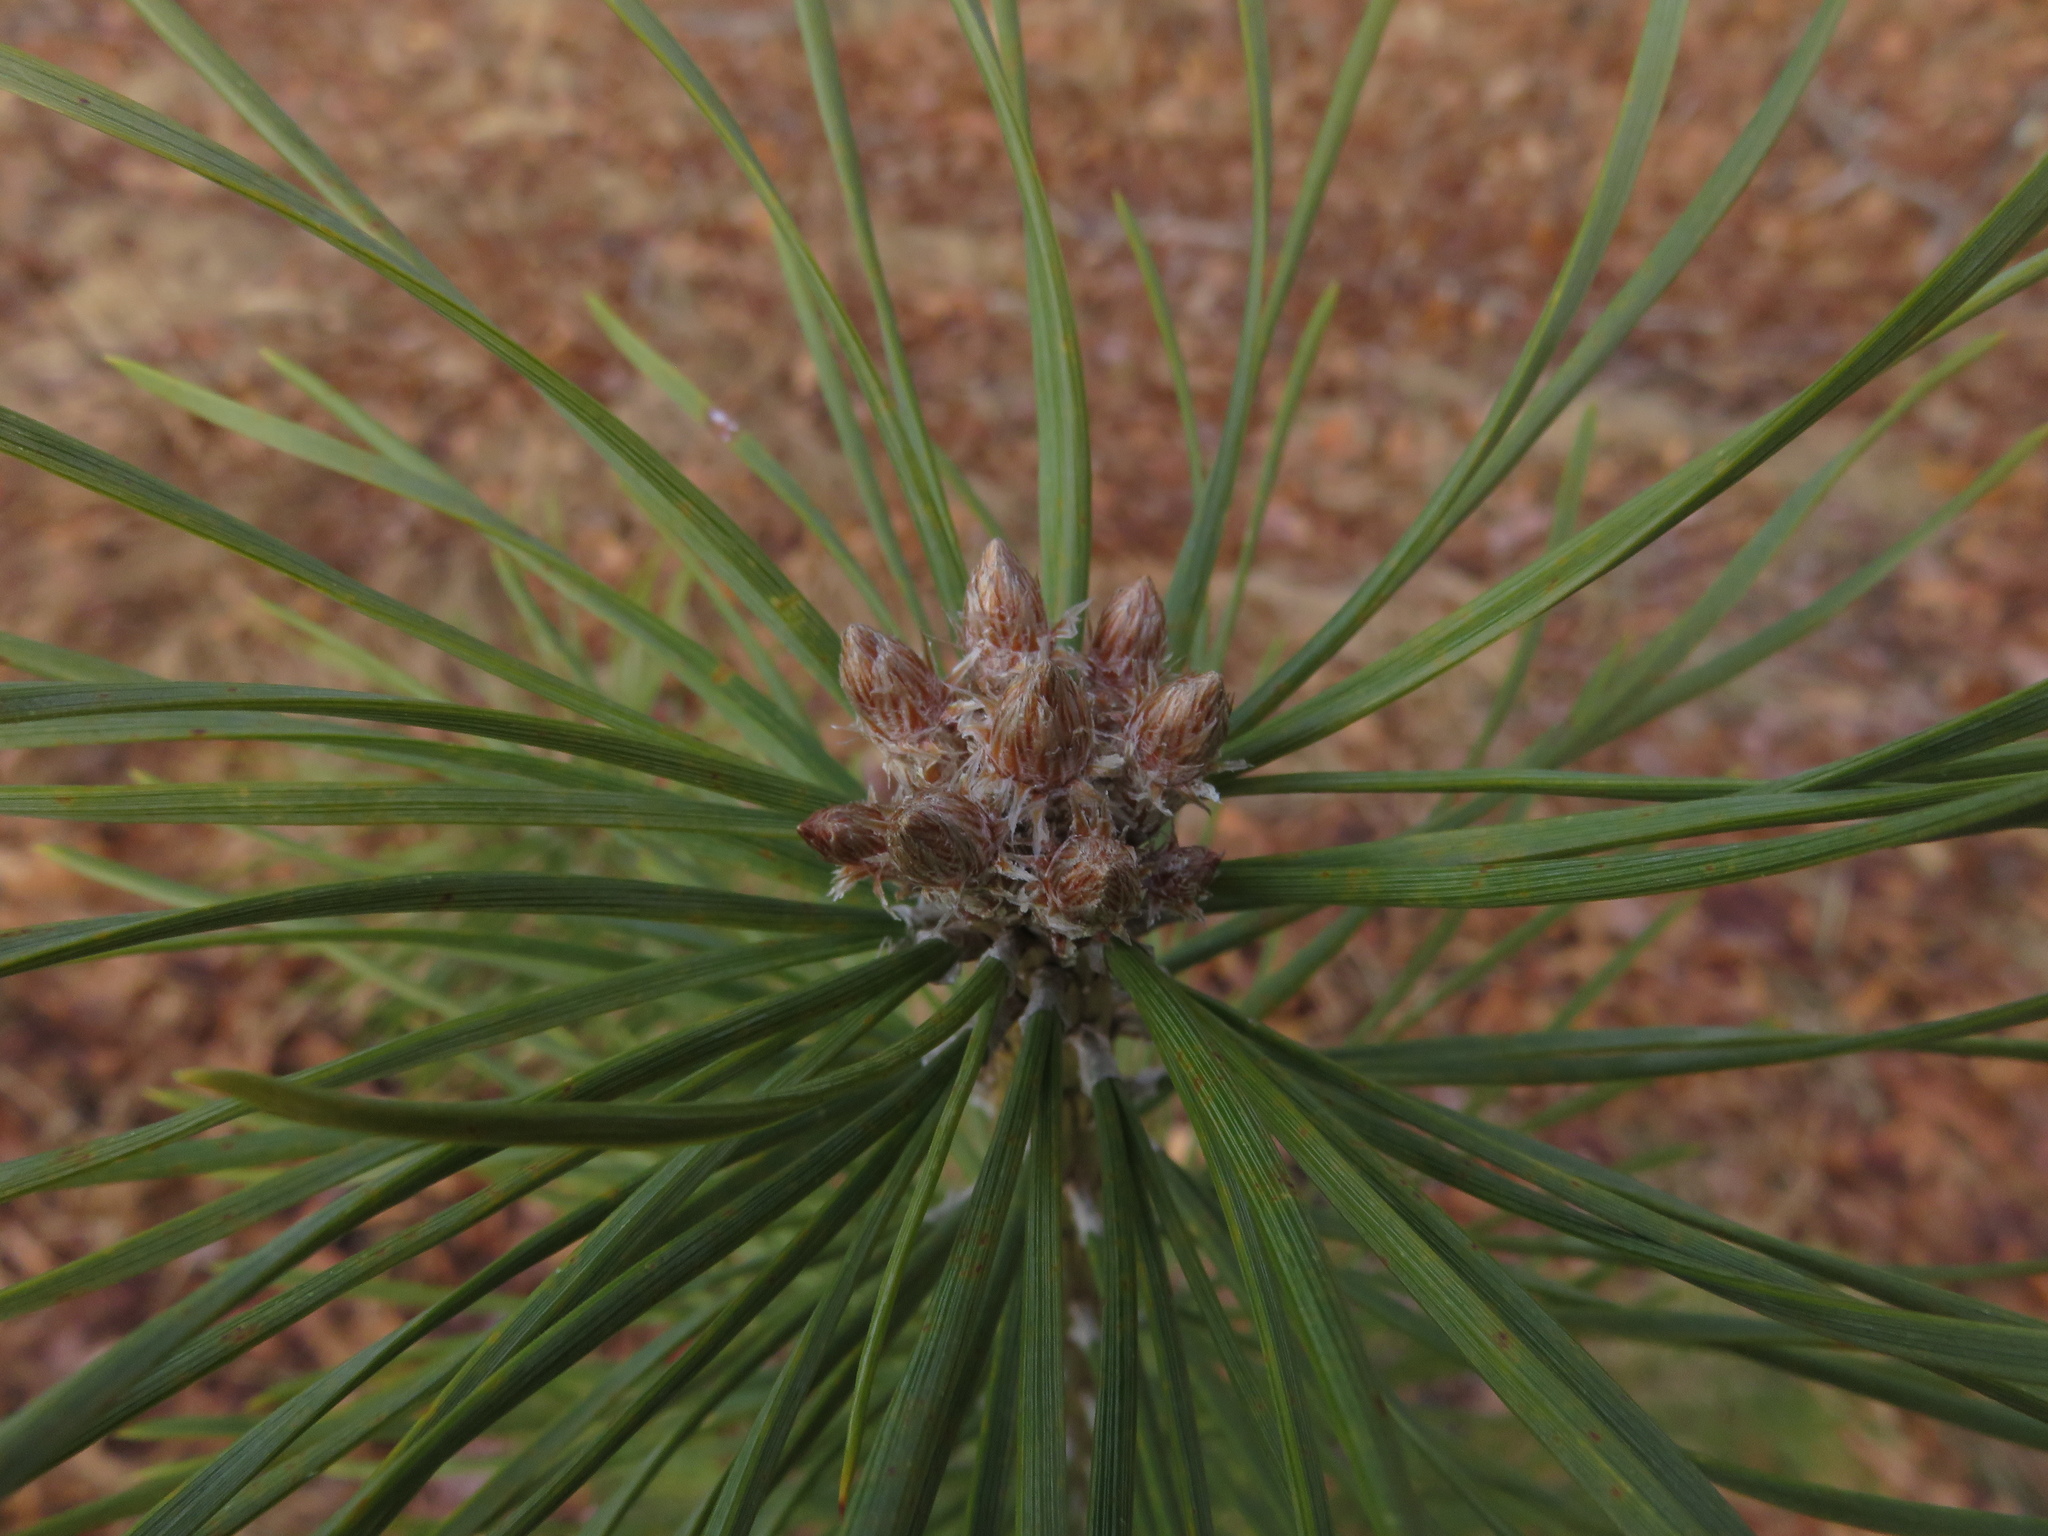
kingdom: Plantae
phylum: Tracheophyta
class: Pinopsida
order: Pinales
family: Pinaceae
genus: Pinus
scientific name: Pinus sylvestris
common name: Scots pine
